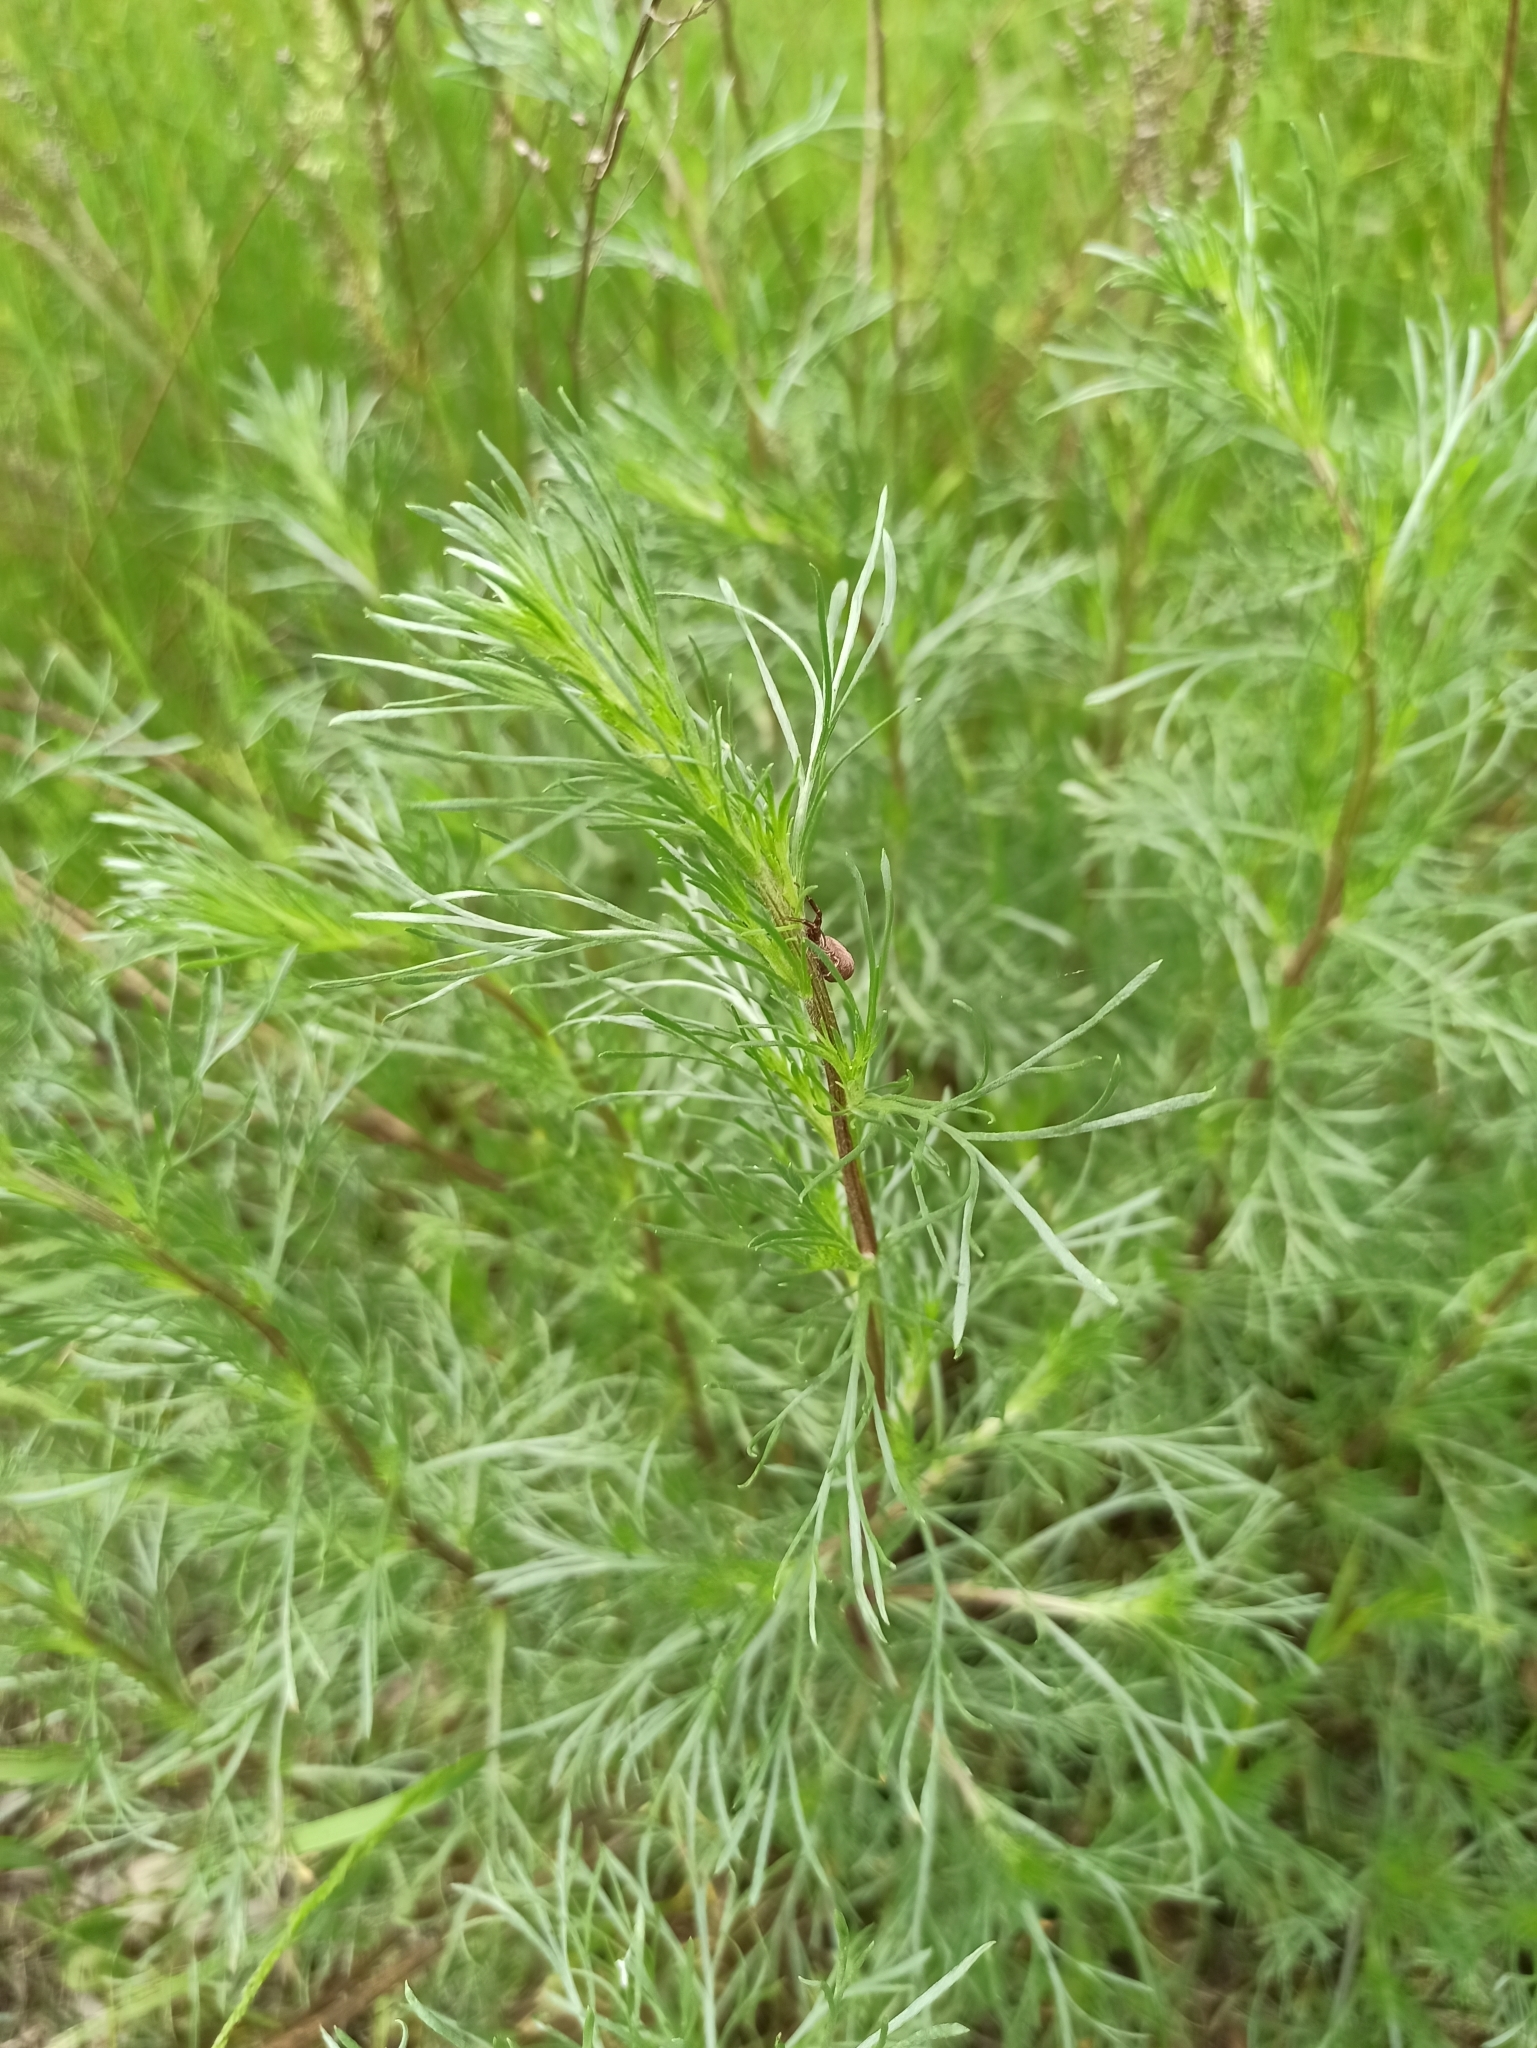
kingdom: Plantae
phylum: Tracheophyta
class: Magnoliopsida
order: Asterales
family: Asteraceae
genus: Artemisia
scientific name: Artemisia campestris
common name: Field wormwood
